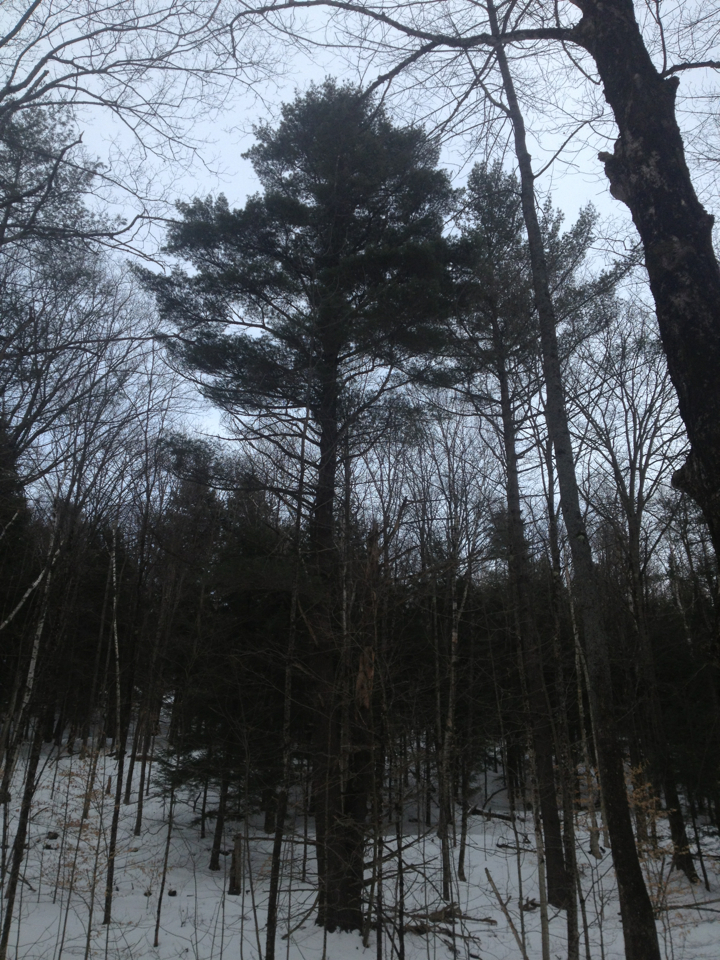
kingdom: Plantae
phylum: Tracheophyta
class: Pinopsida
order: Pinales
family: Pinaceae
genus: Pinus
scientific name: Pinus strobus
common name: Weymouth pine
